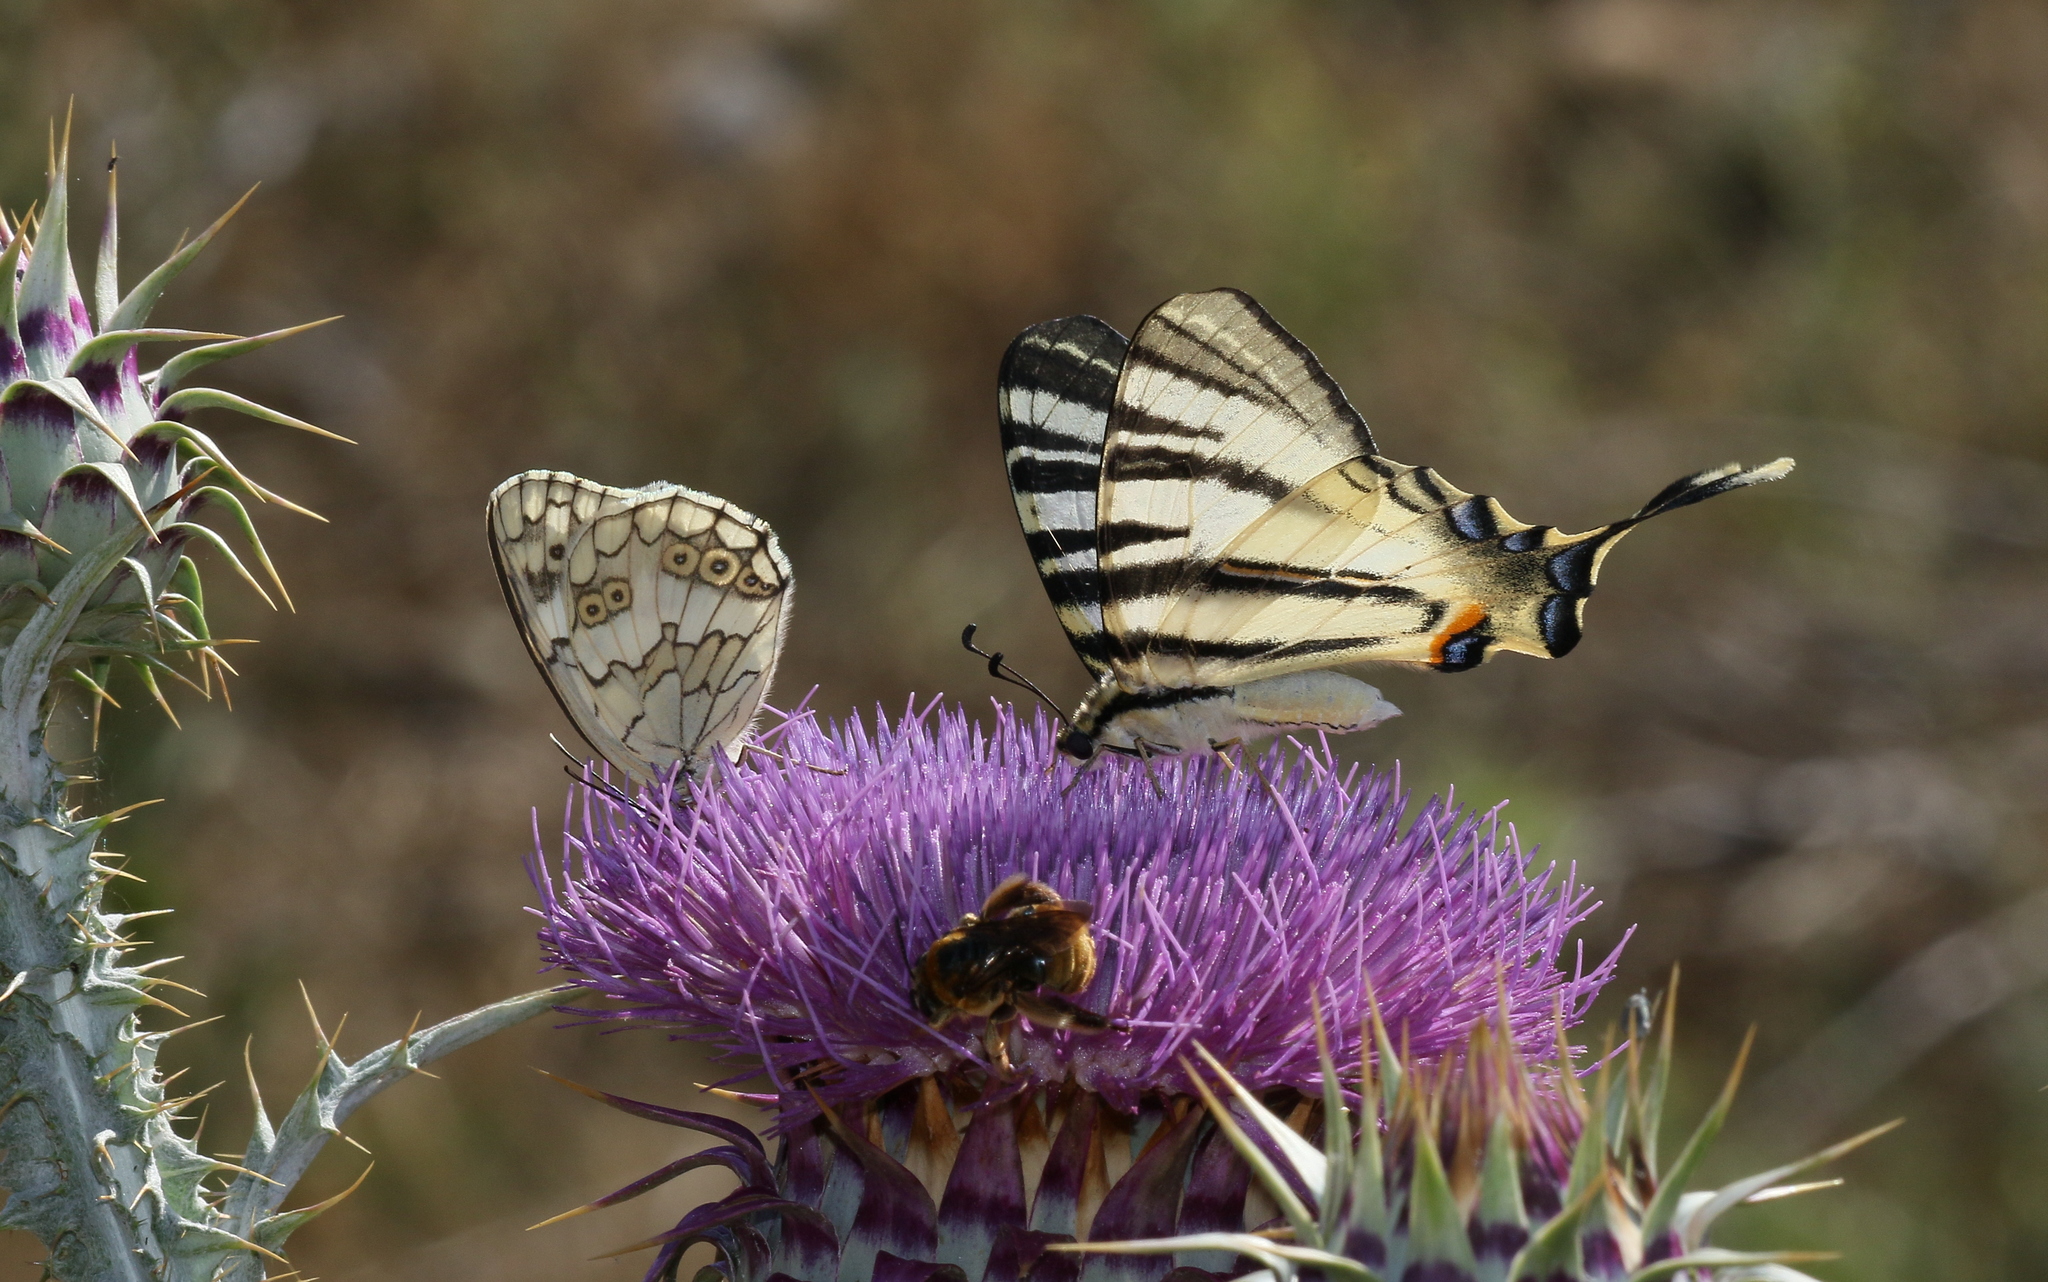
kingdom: Animalia
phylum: Arthropoda
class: Insecta
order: Lepidoptera
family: Papilionidae
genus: Iphiclides
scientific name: Iphiclides podalirius
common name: Scarce swallowtail
